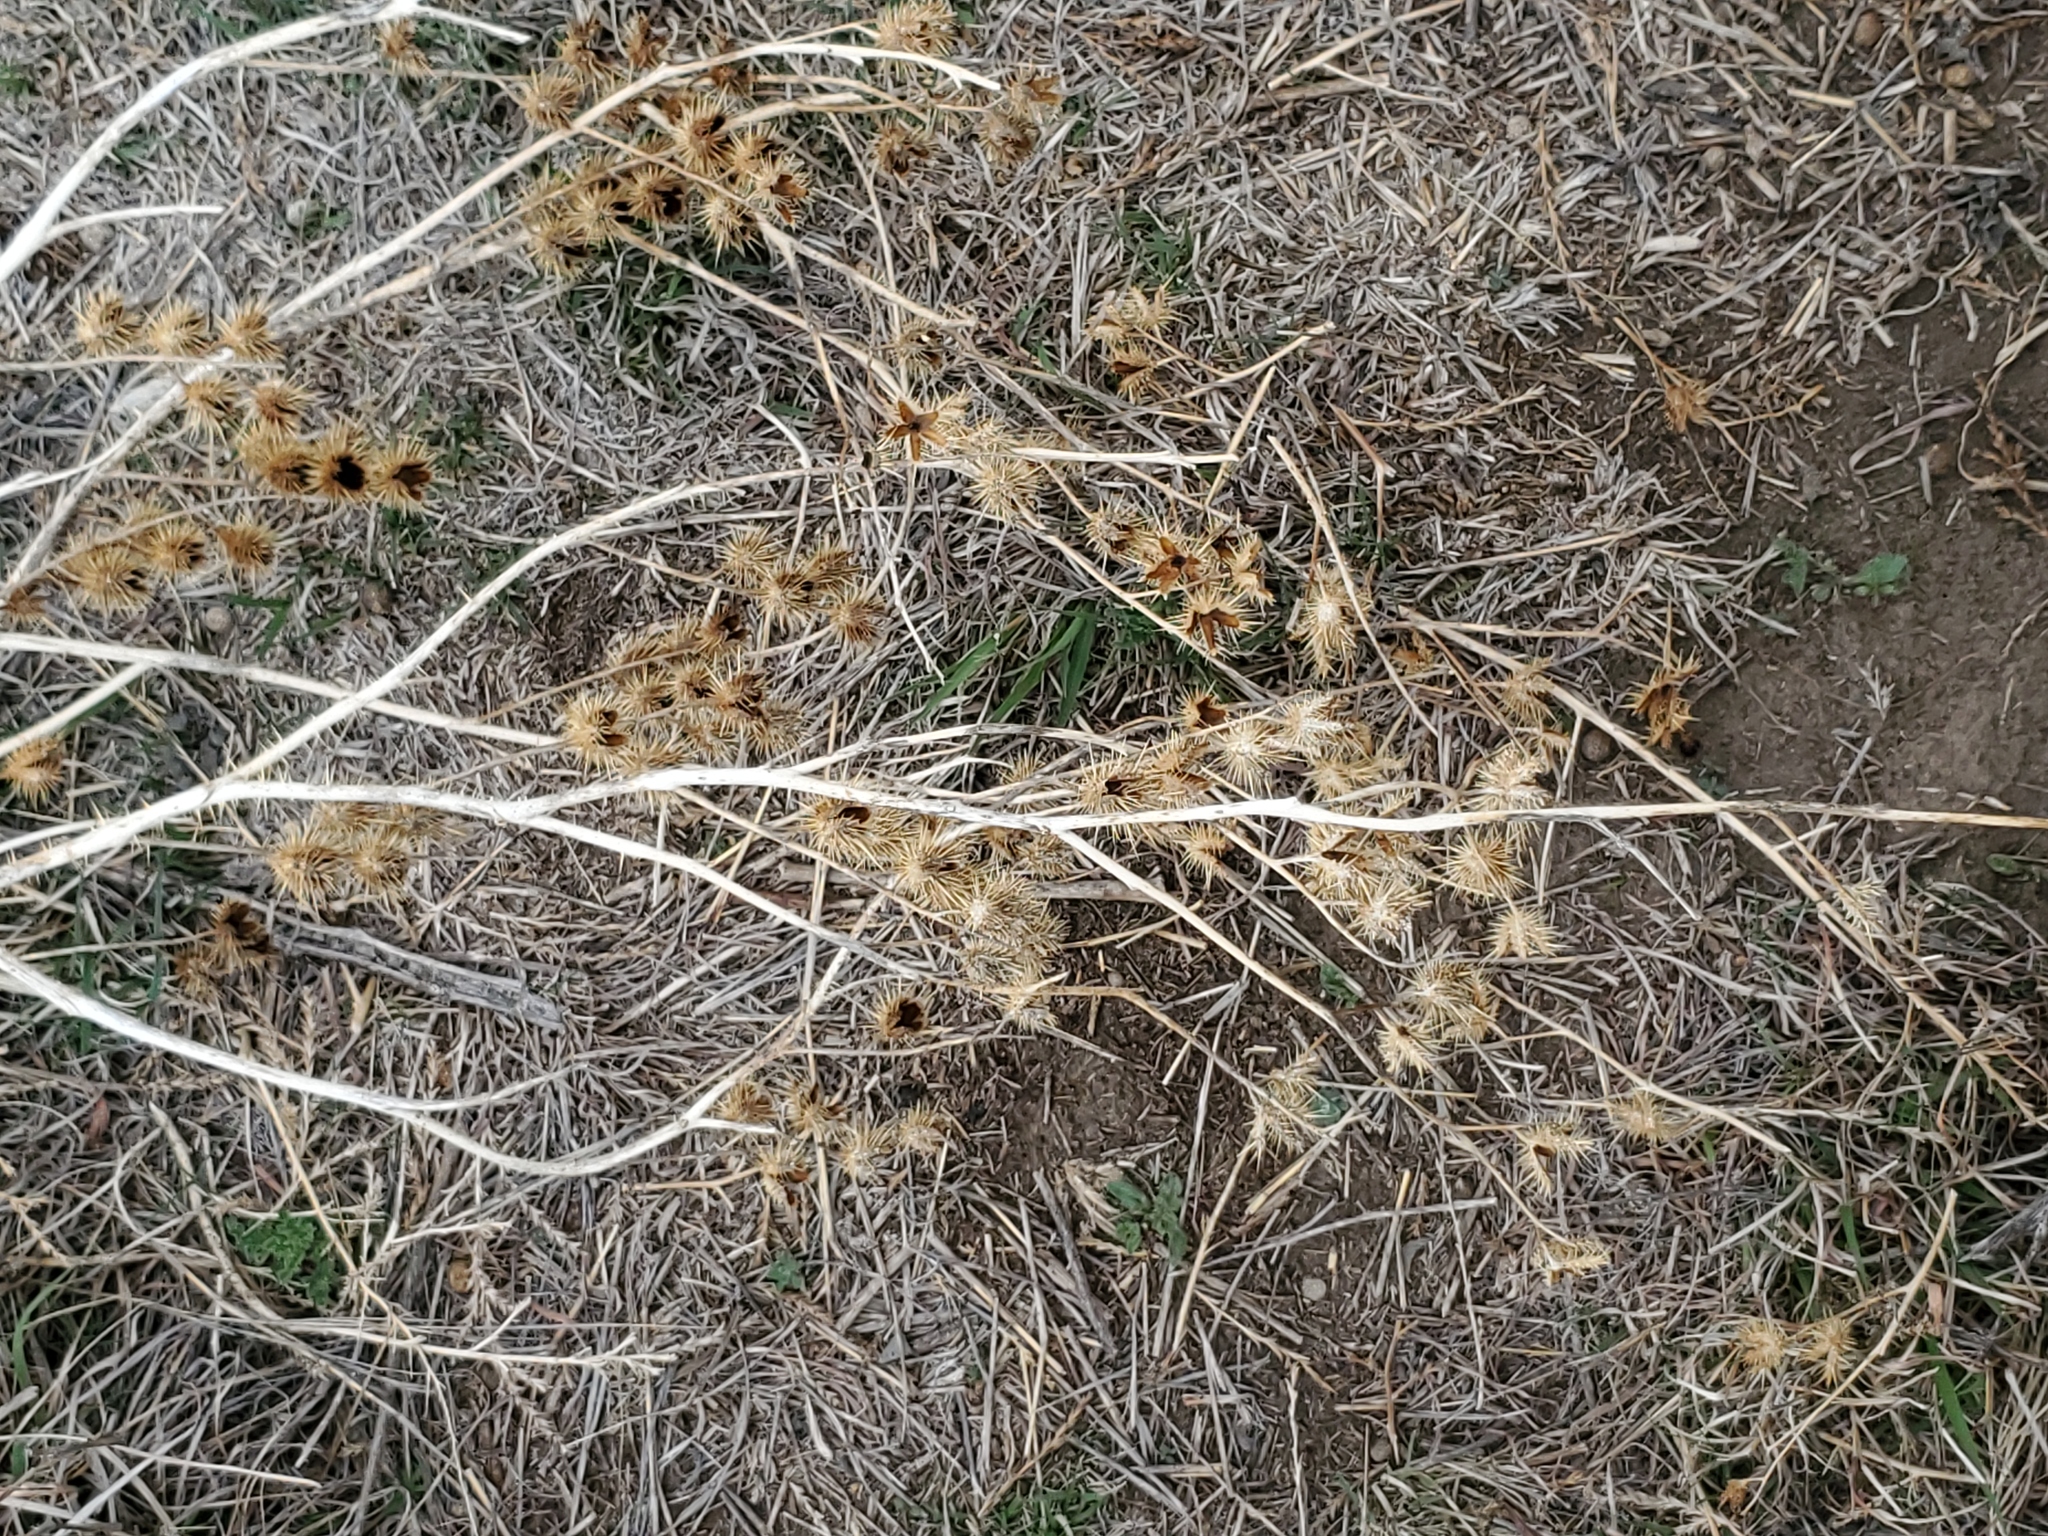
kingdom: Plantae
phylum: Tracheophyta
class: Magnoliopsida
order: Solanales
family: Solanaceae
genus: Solanum
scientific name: Solanum angustifolium
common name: Buffalobur nightshade
